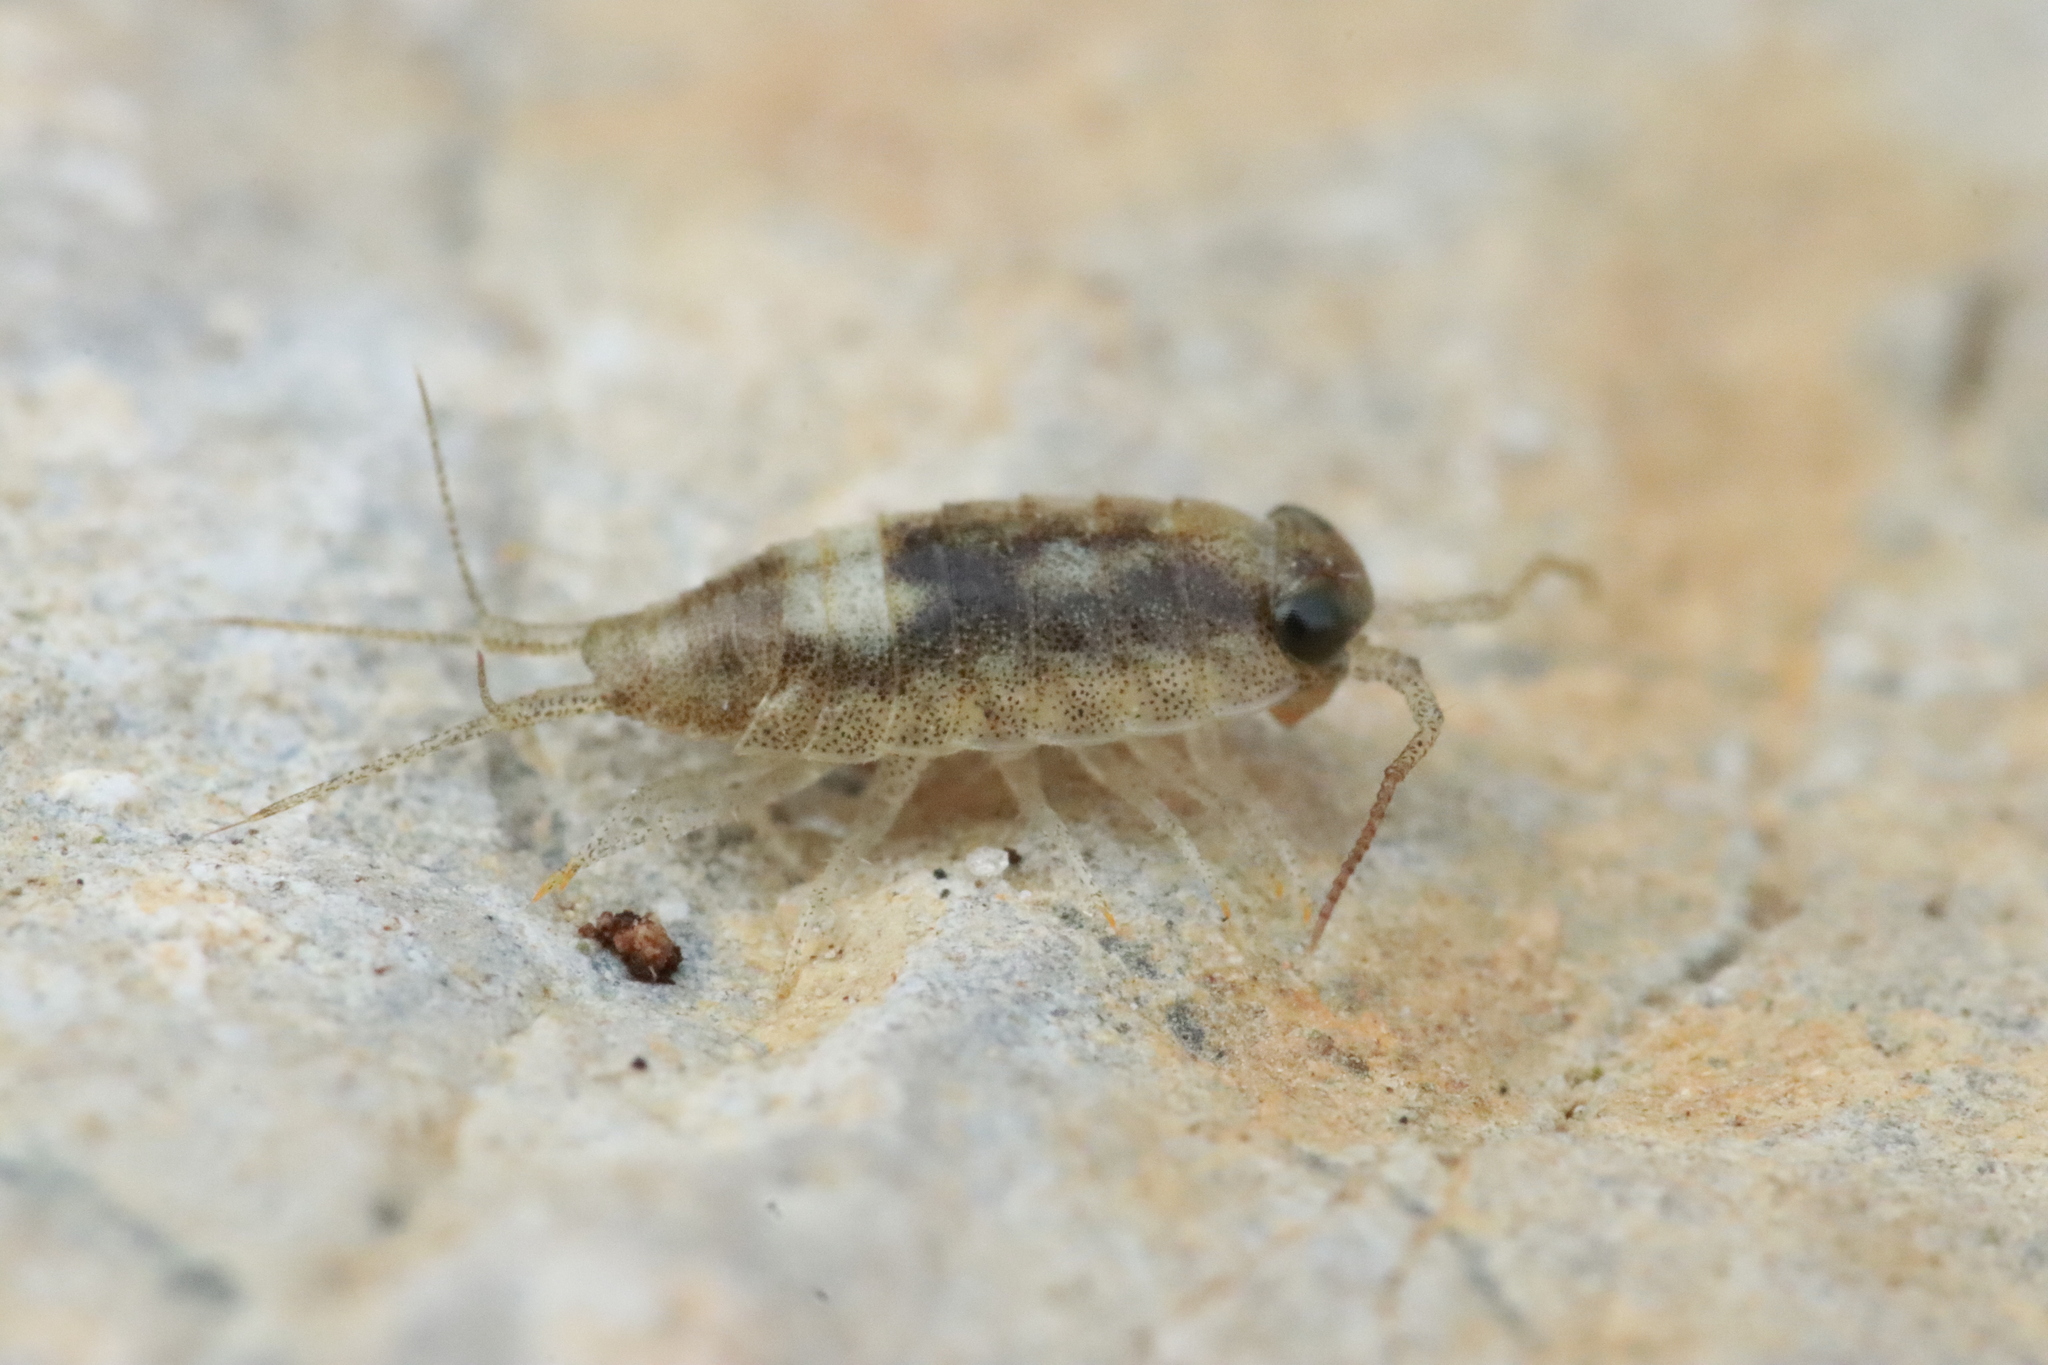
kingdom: Animalia
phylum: Arthropoda
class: Malacostraca
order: Isopoda
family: Ligiidae
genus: Ligia
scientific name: Ligia italica
